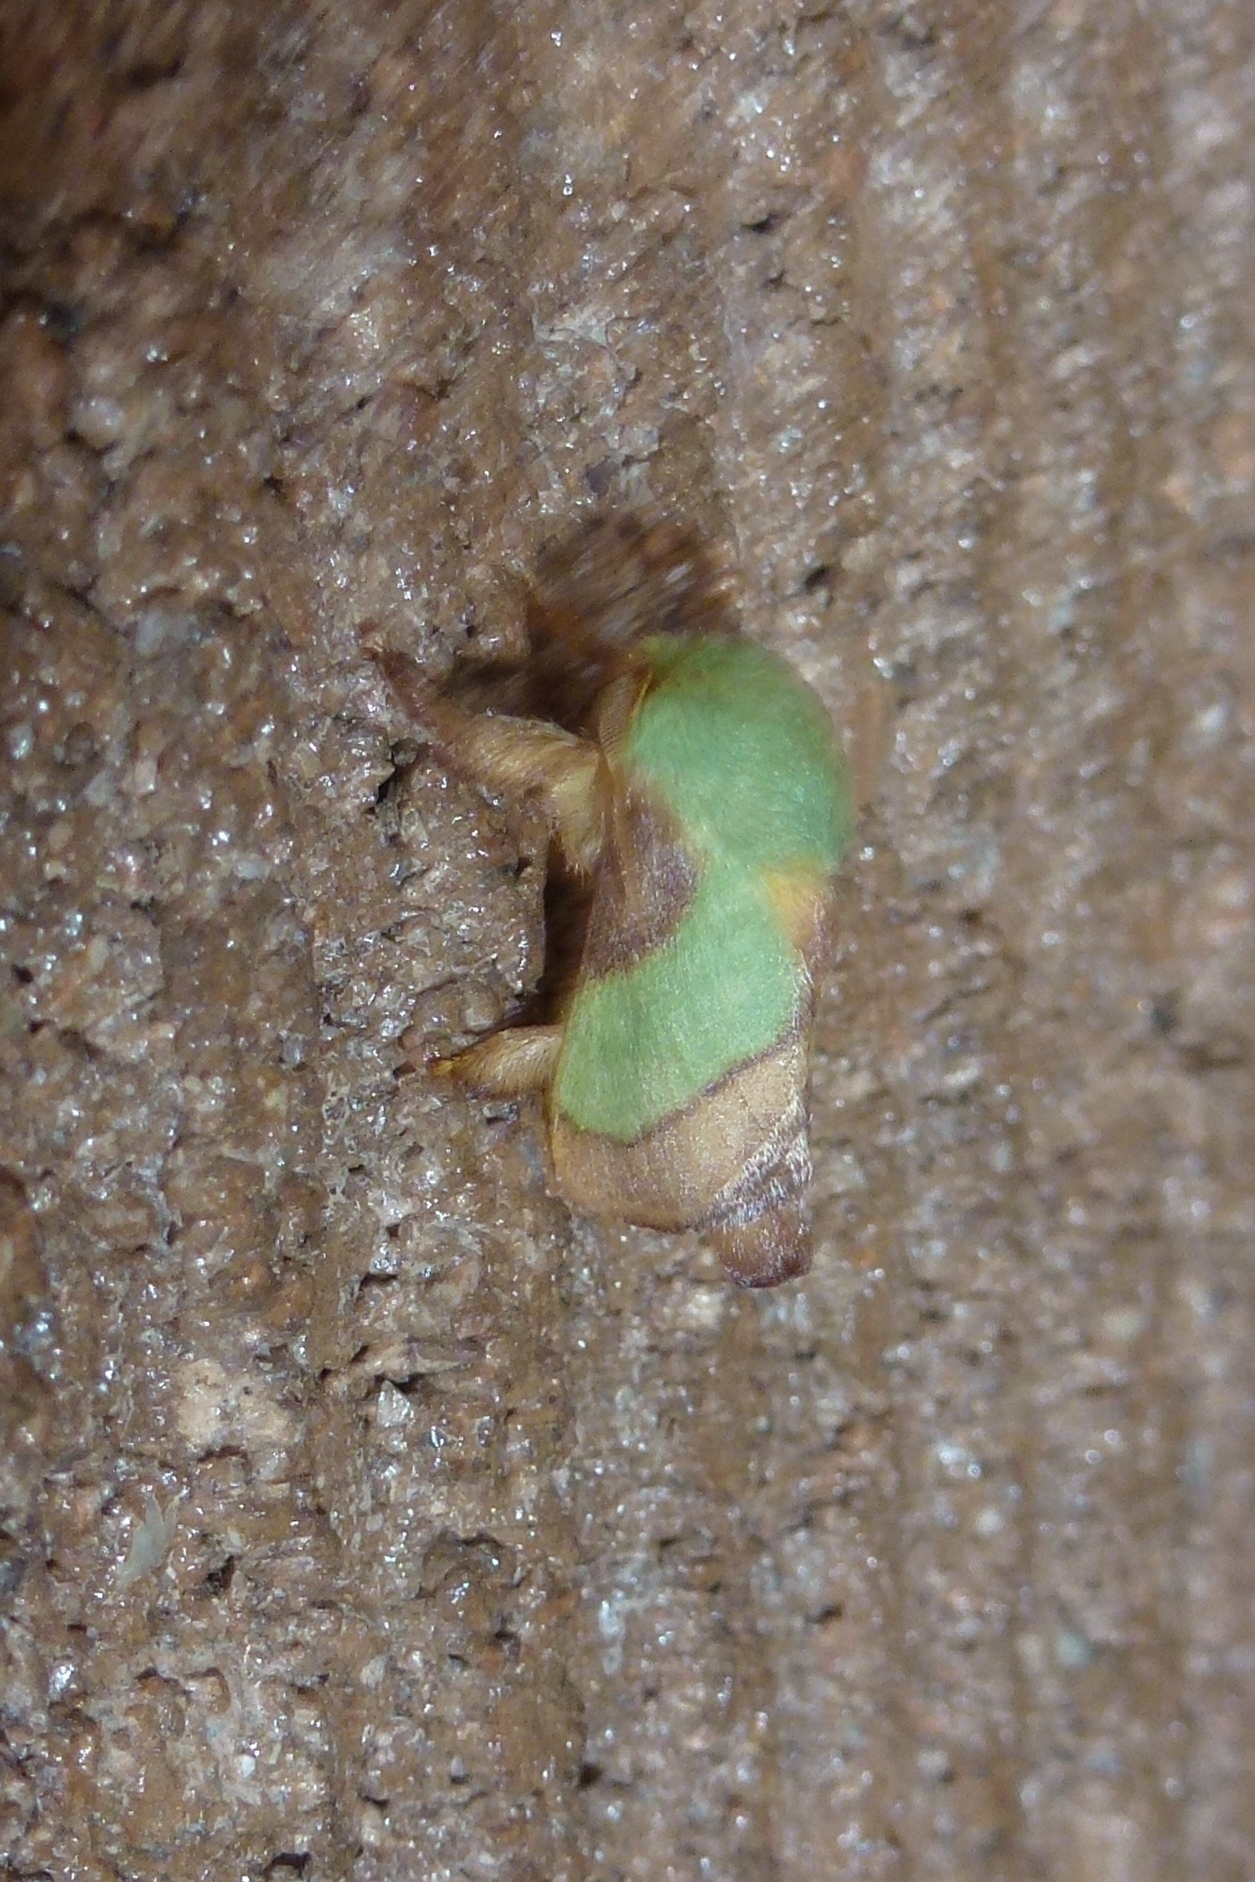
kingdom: Animalia
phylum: Arthropoda
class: Insecta
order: Lepidoptera
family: Limacodidae
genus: Parasa
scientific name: Parasa chloris
